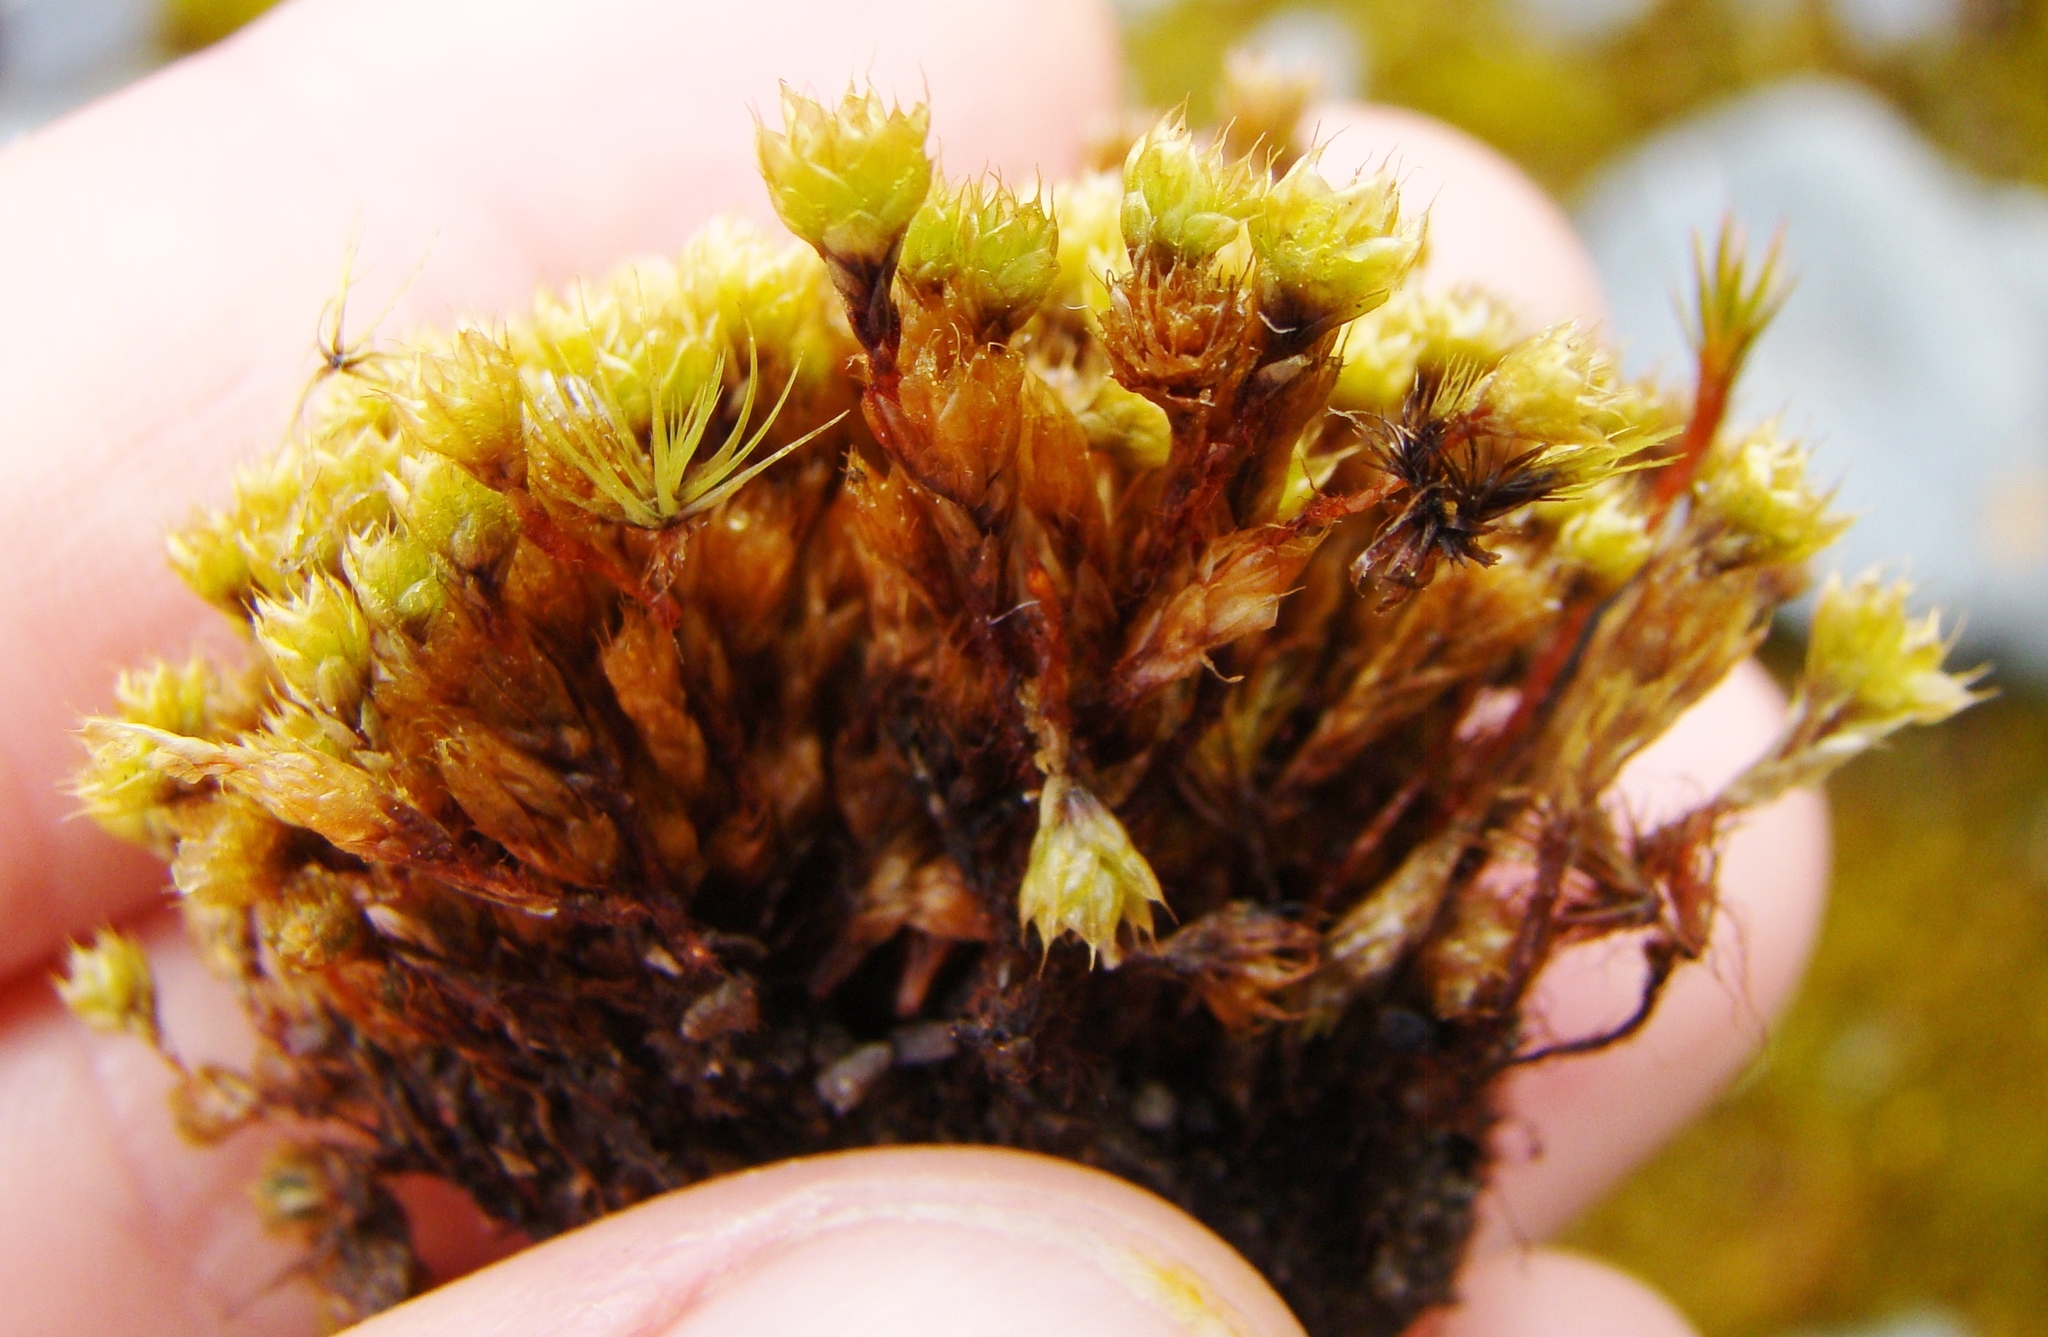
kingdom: Plantae
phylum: Bryophyta
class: Bryopsida
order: Bryales
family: Bryaceae
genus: Rosulabryum
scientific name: Rosulabryum billardierei
